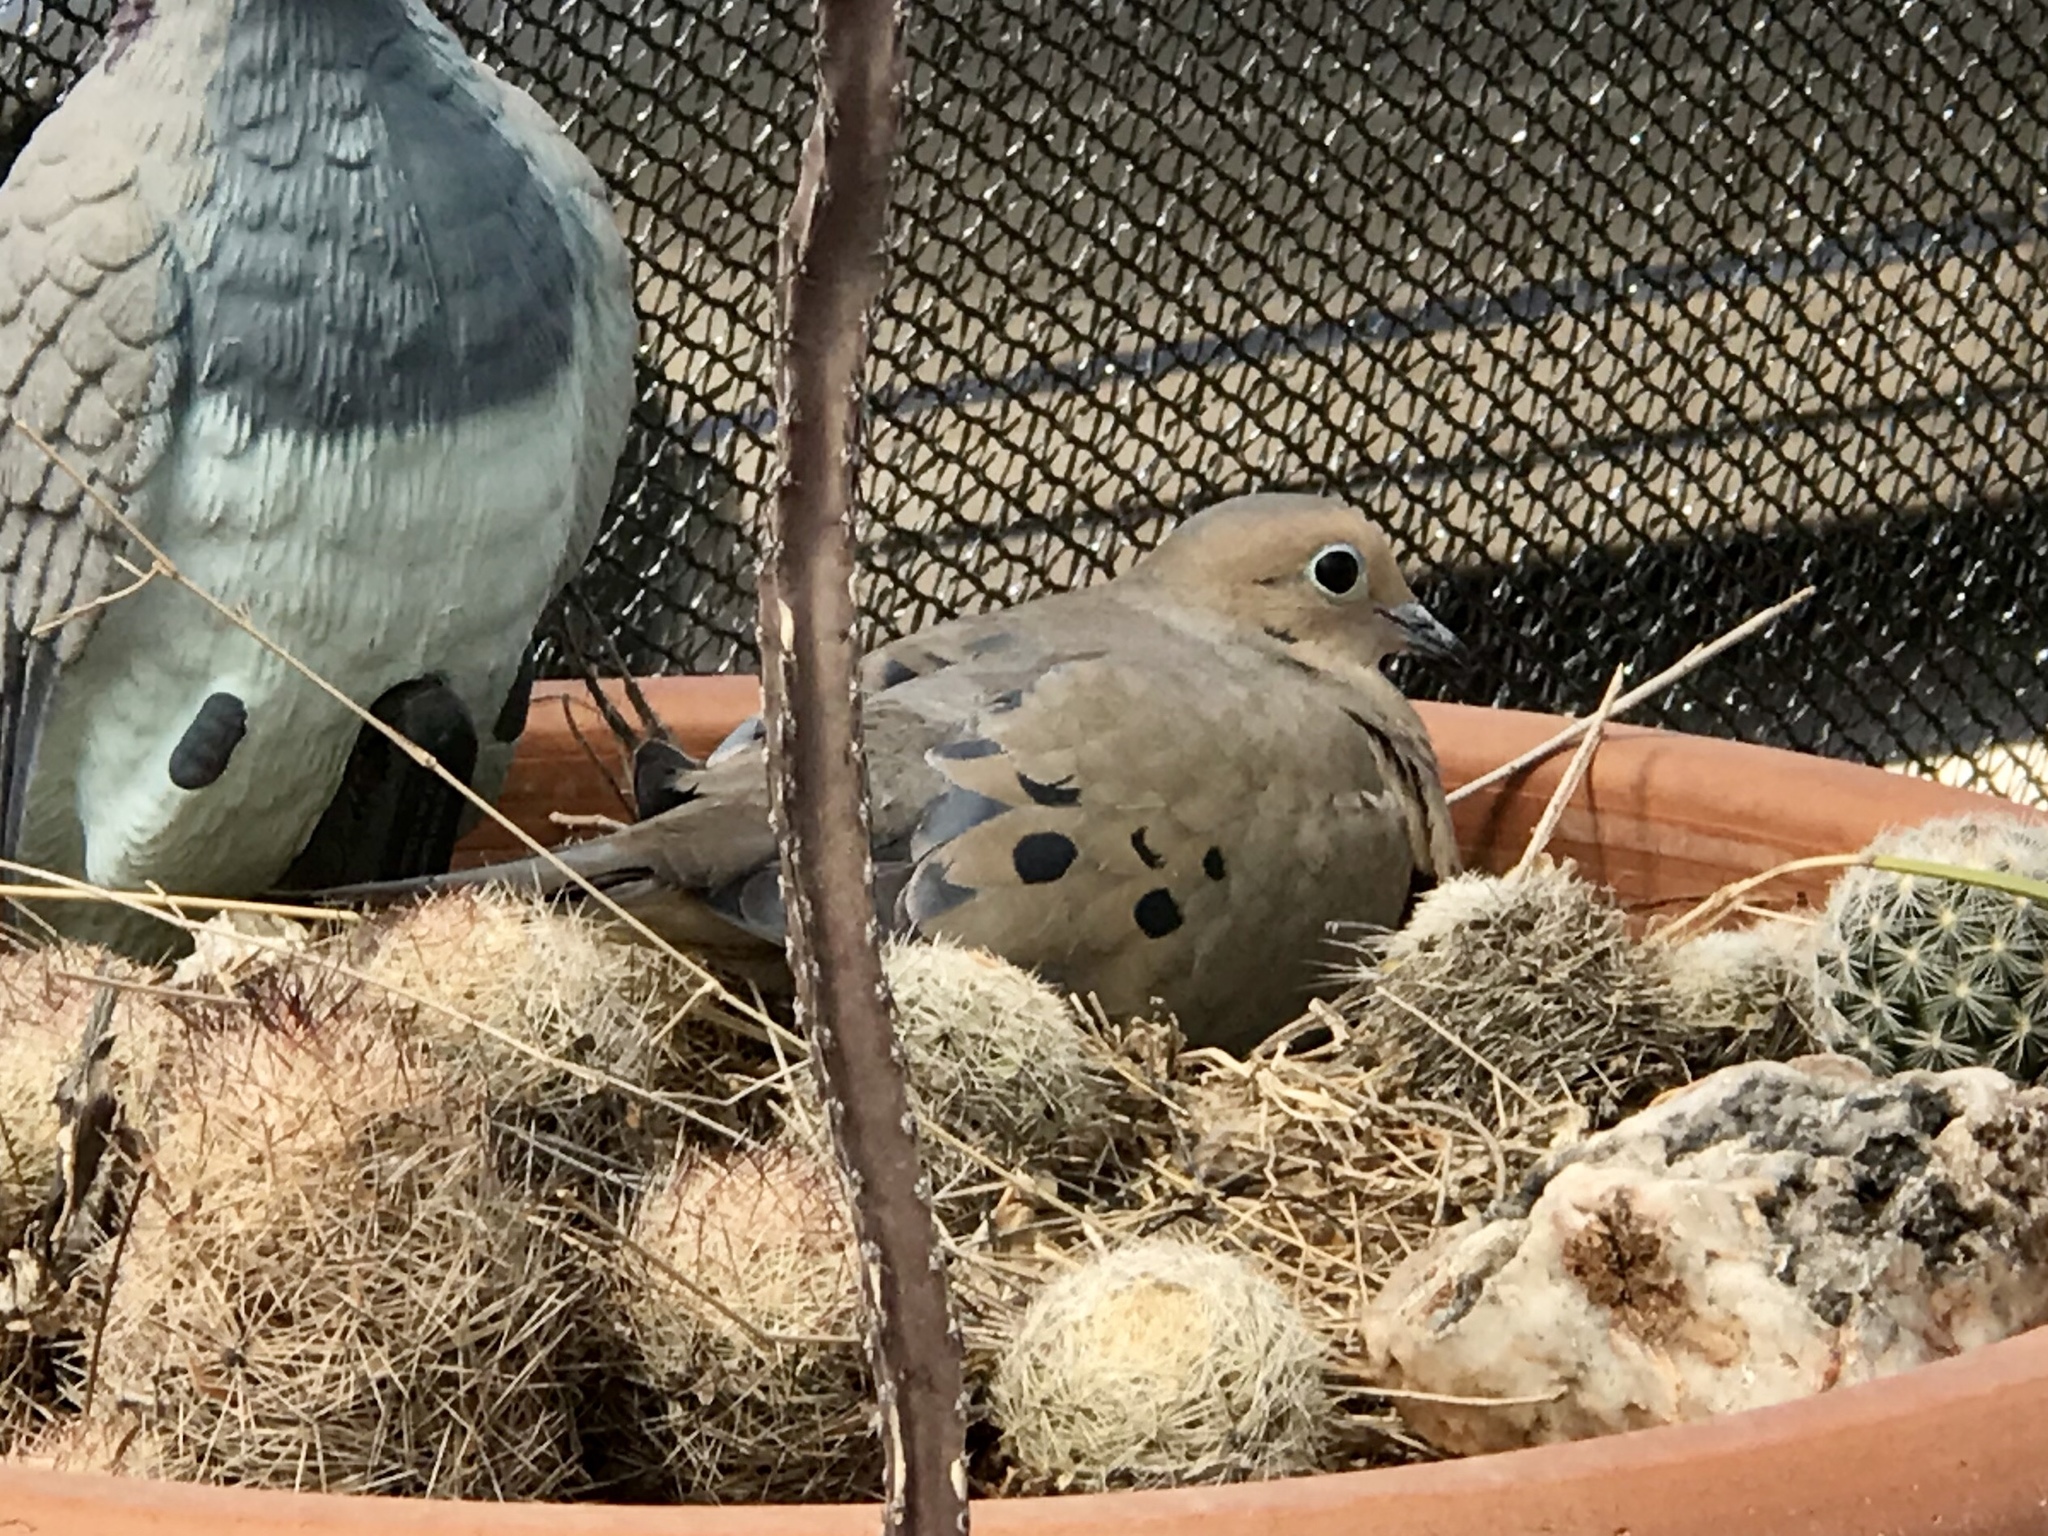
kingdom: Animalia
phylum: Chordata
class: Aves
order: Columbiformes
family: Columbidae
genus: Zenaida
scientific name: Zenaida macroura
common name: Mourning dove
